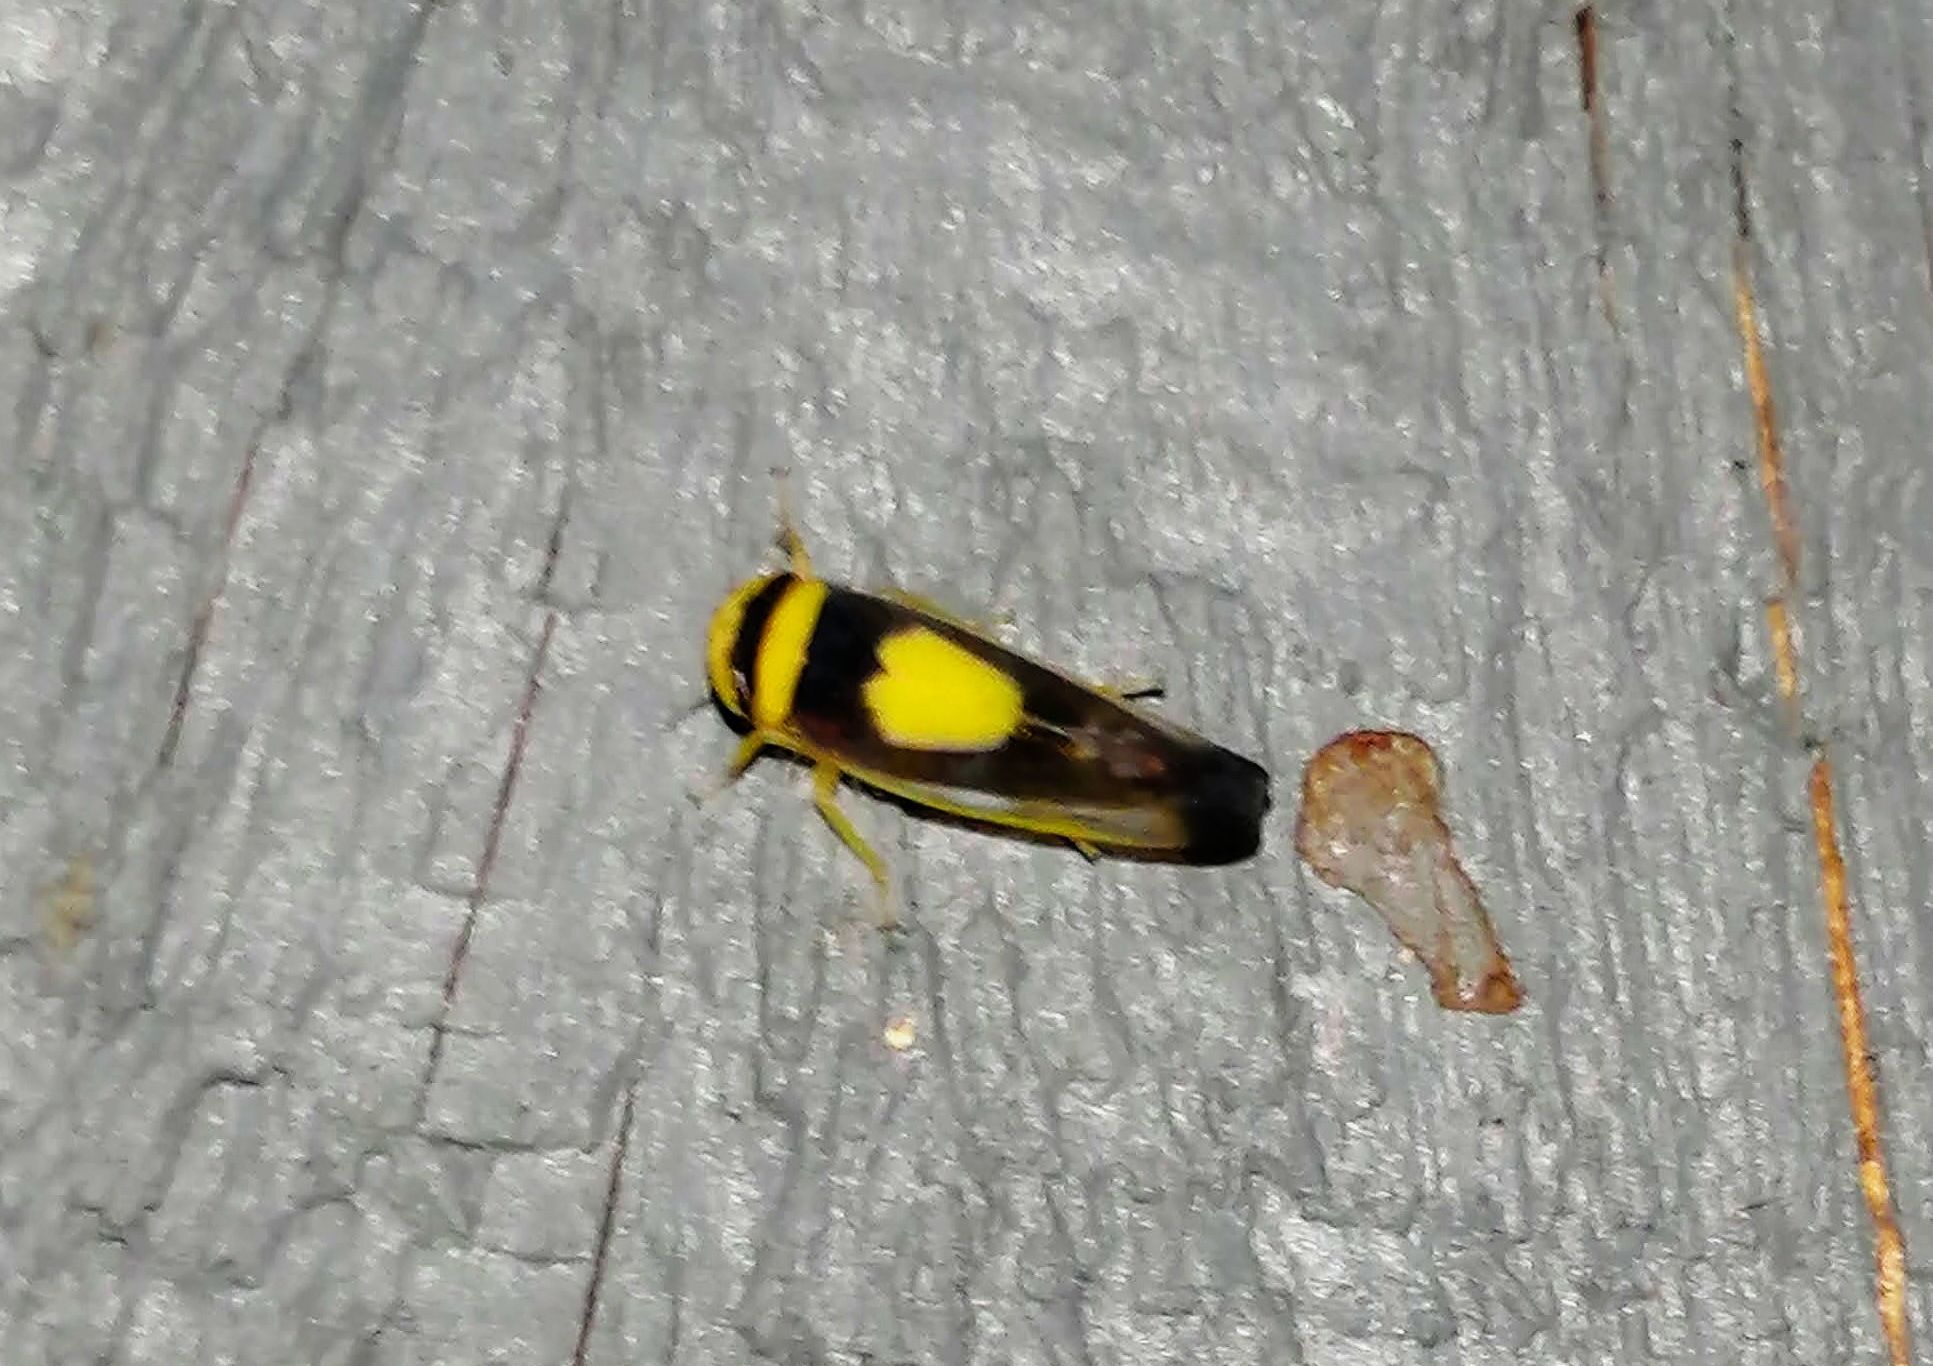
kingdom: Animalia
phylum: Arthropoda
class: Insecta
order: Hemiptera
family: Cicadellidae
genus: Colladonus
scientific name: Colladonus clitellarius
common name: The saddleback leafhopper
